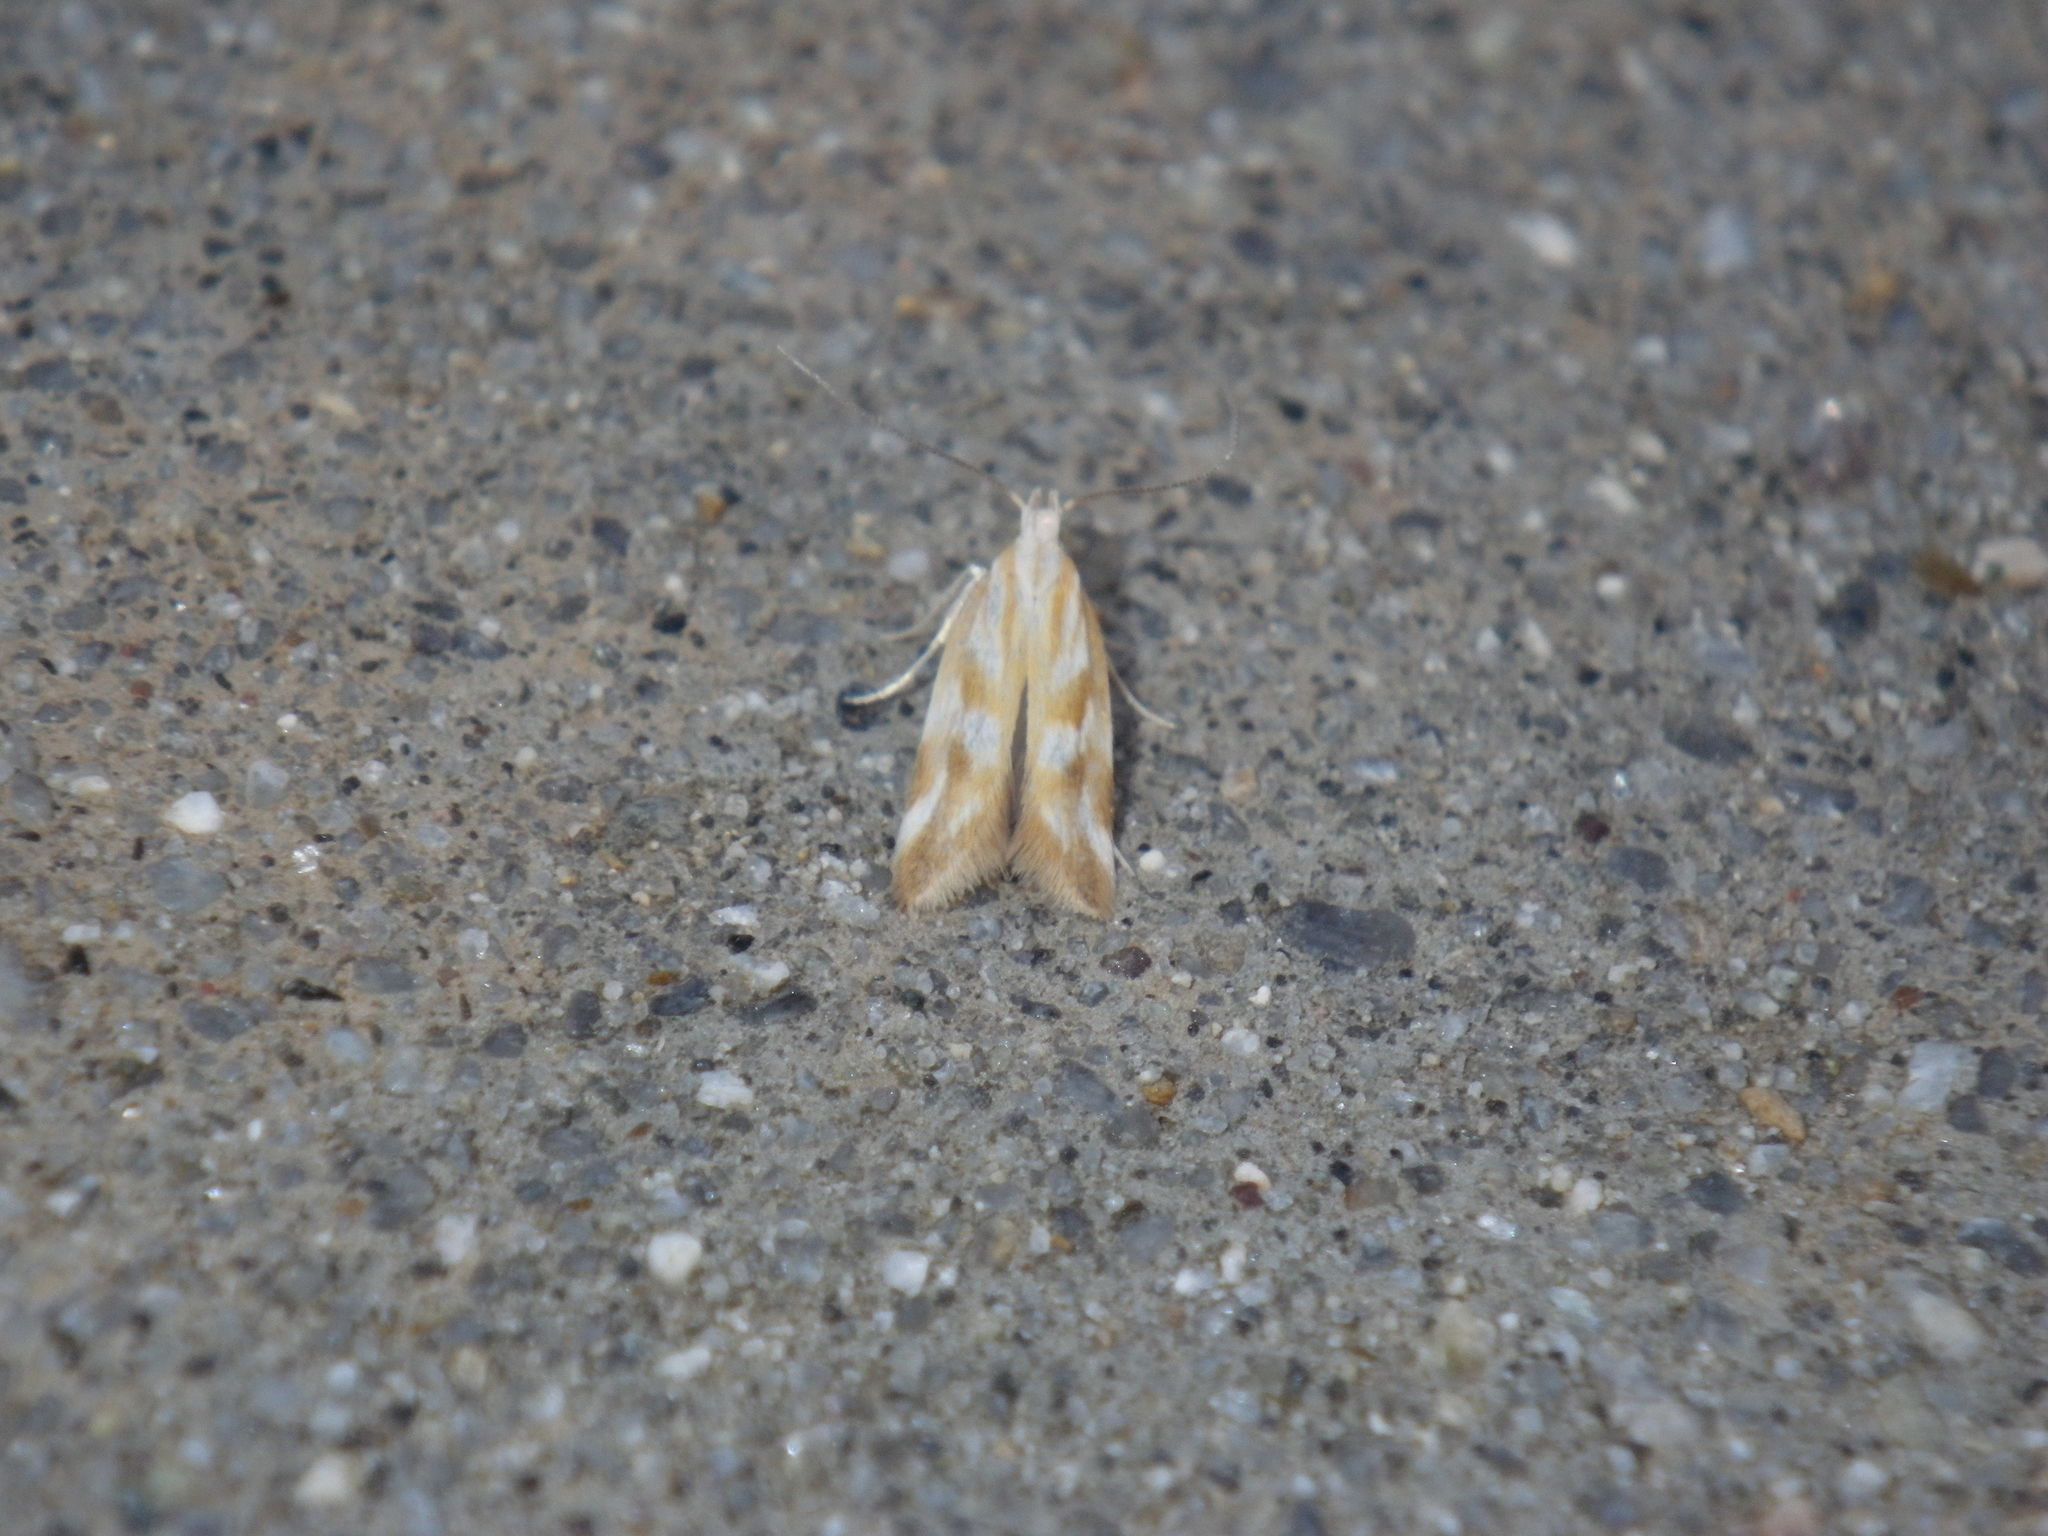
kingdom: Animalia
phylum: Arthropoda
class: Insecta
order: Lepidoptera
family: Gelechiidae
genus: Mirificarma
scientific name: Mirificarma eburnella
